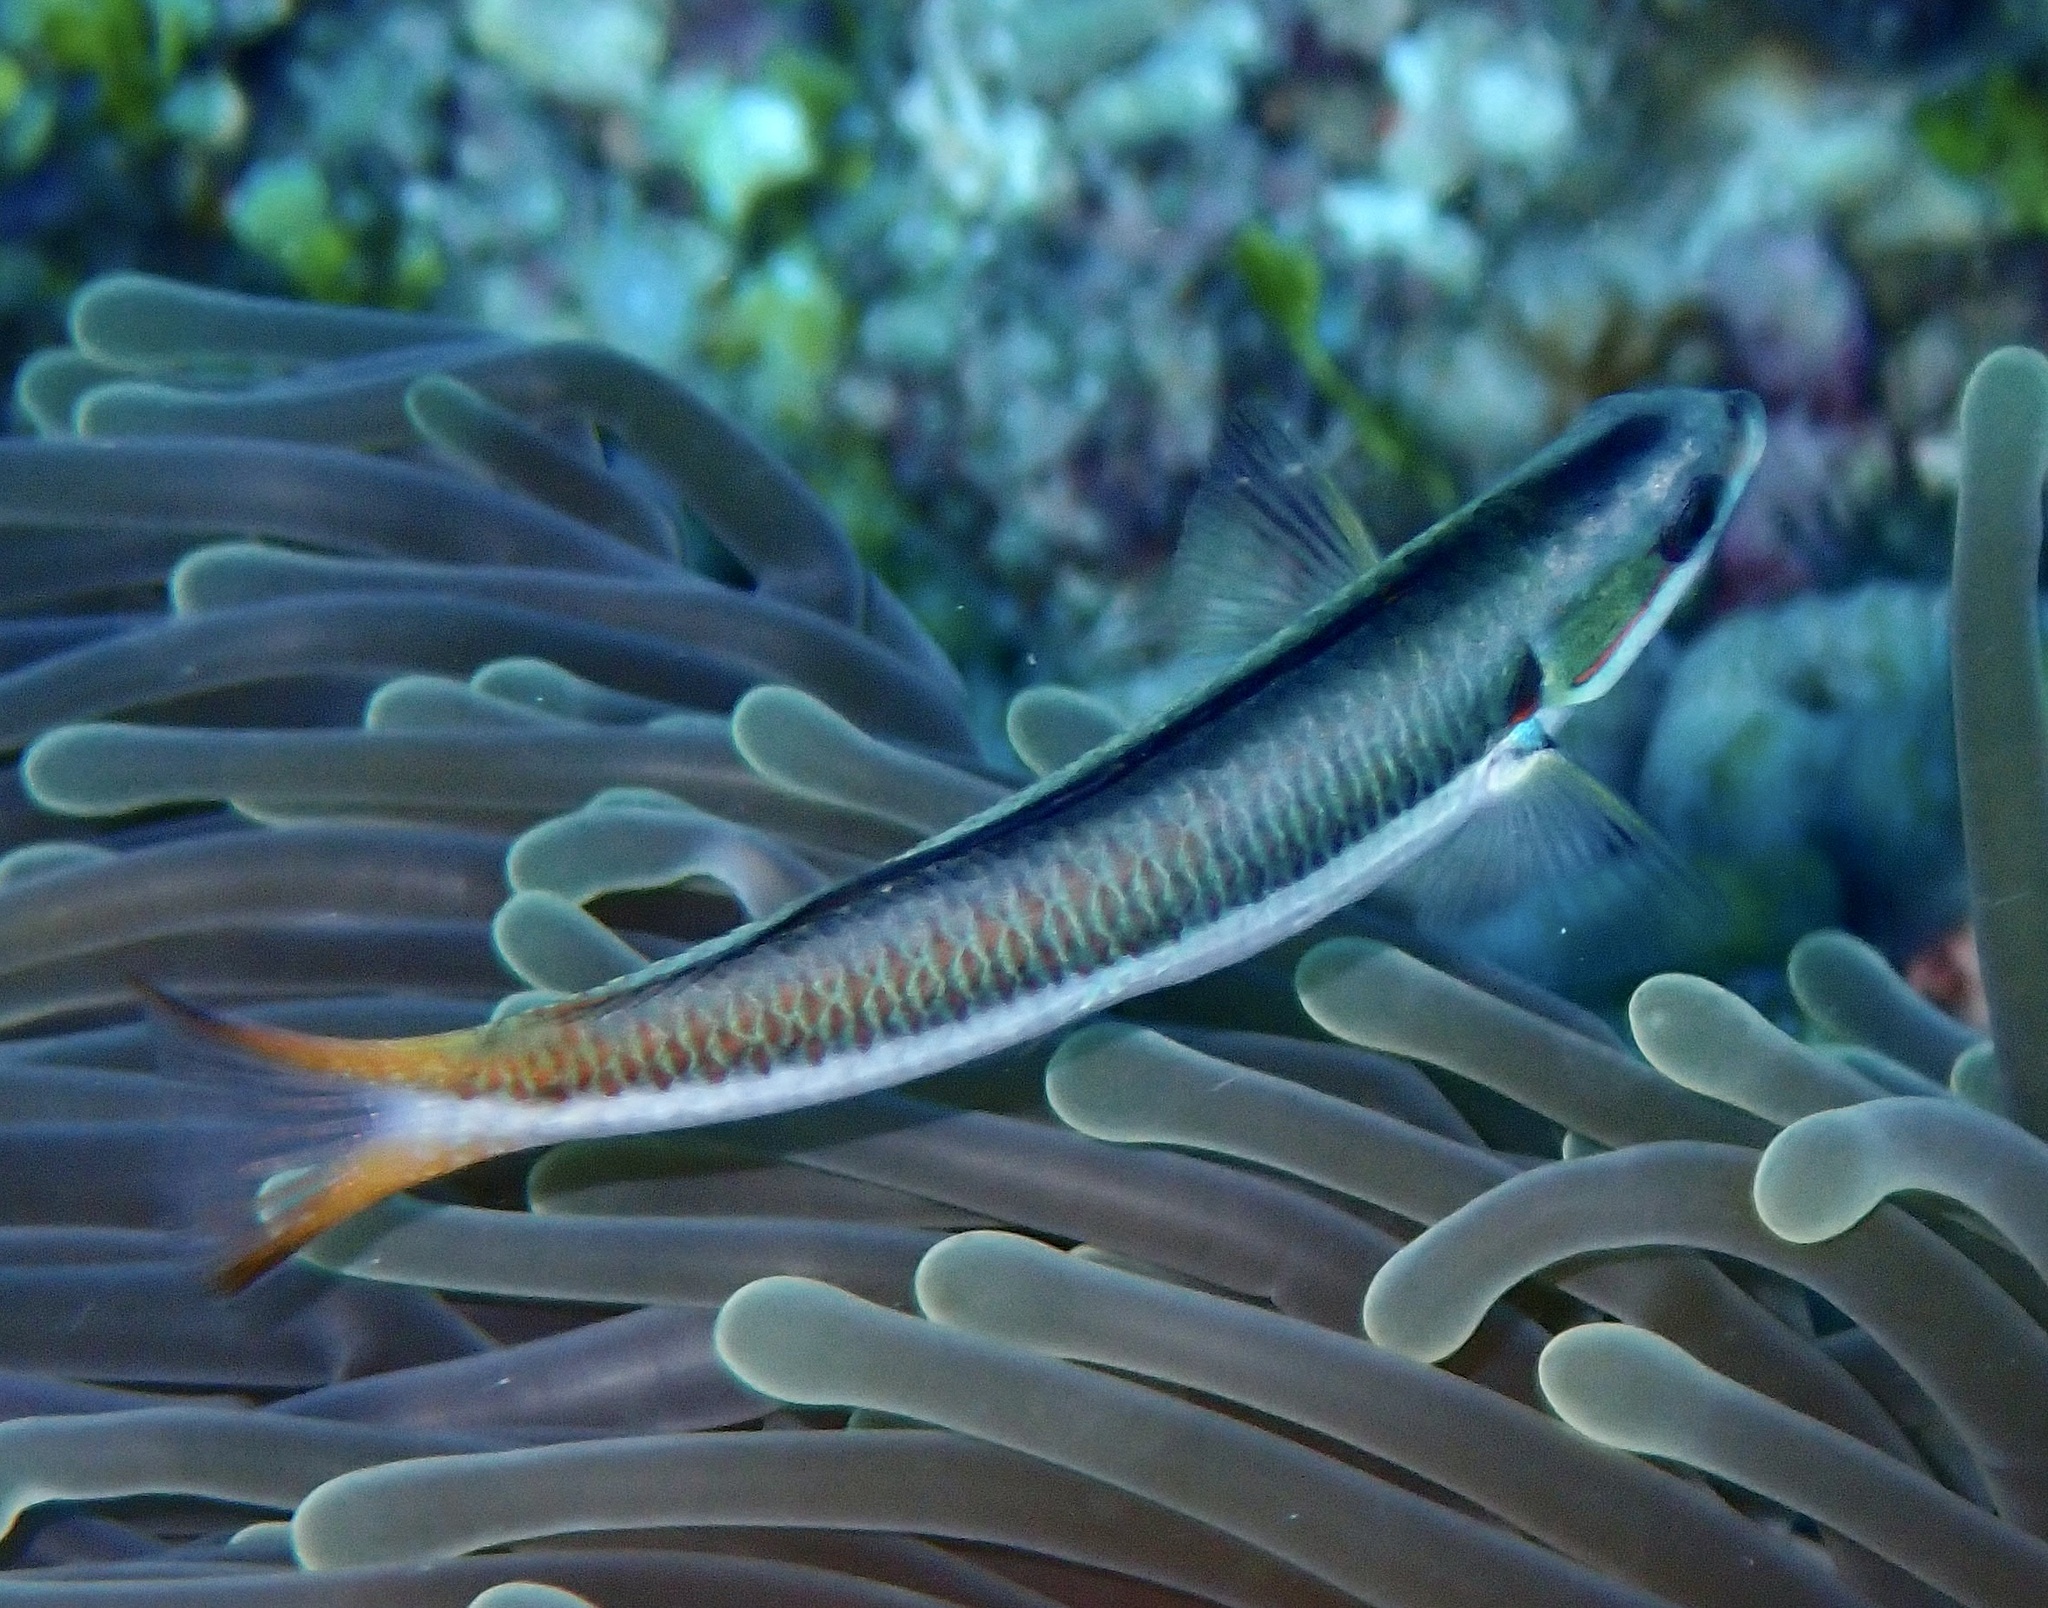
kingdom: Animalia
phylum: Chordata
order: Perciformes
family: Labridae
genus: Thalassoma
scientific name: Thalassoma amblycephalum
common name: Bluehead wrasse
